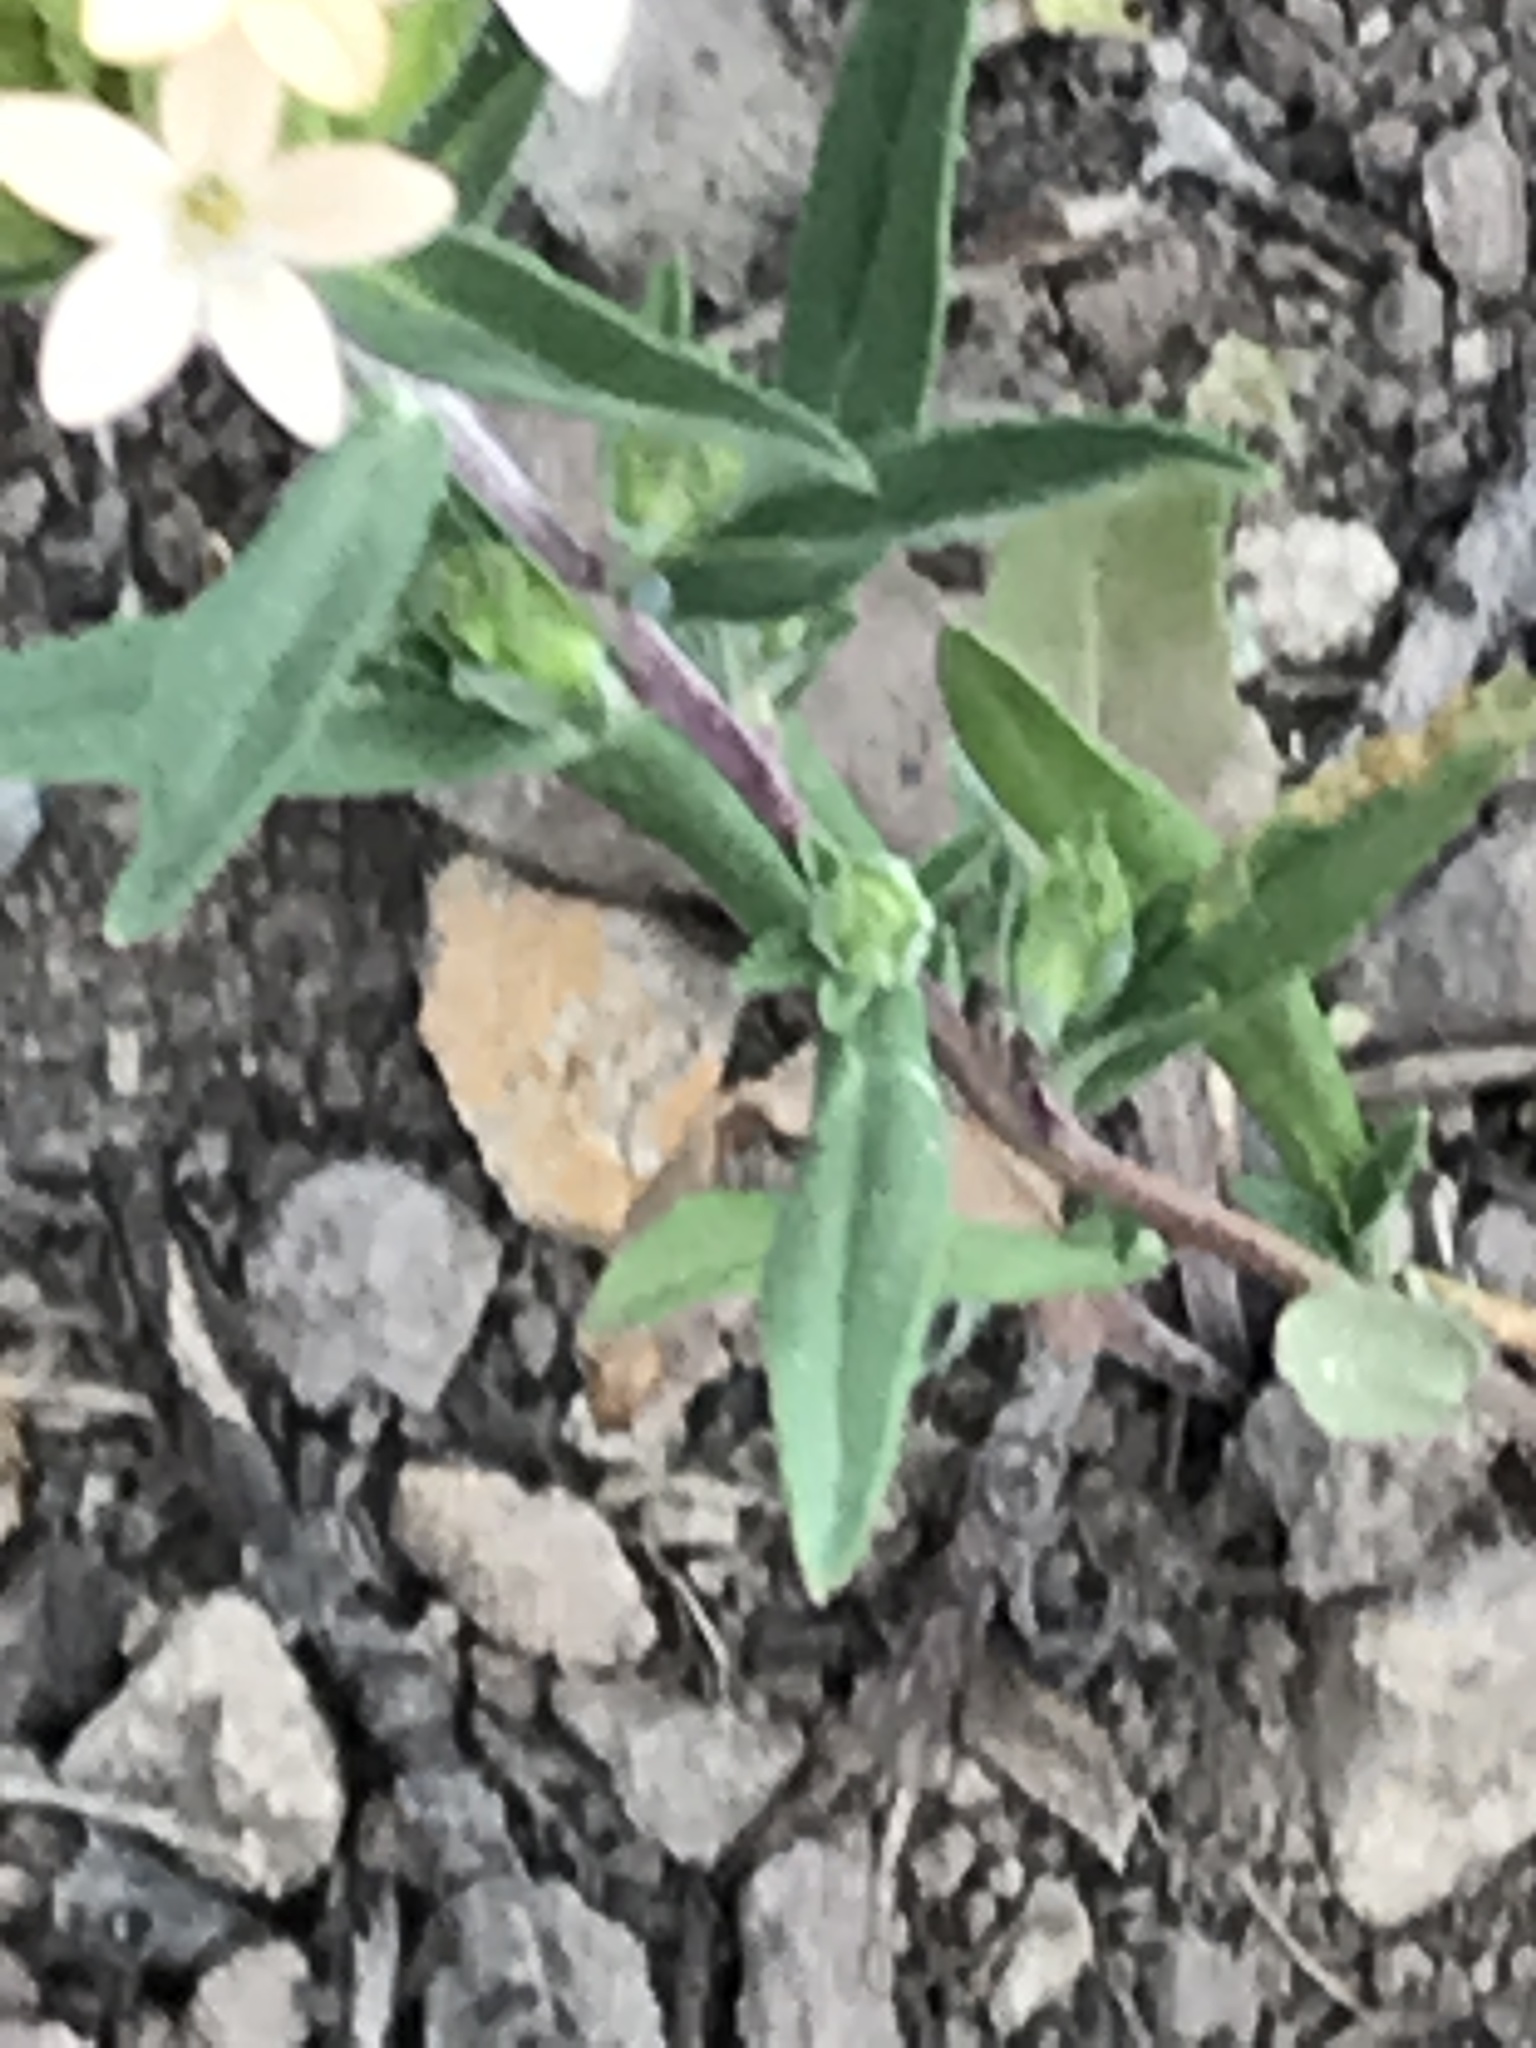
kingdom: Plantae
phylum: Tracheophyta
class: Magnoliopsida
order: Ericales
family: Polemoniaceae
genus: Collomia
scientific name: Collomia grandiflora
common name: California strawflower
